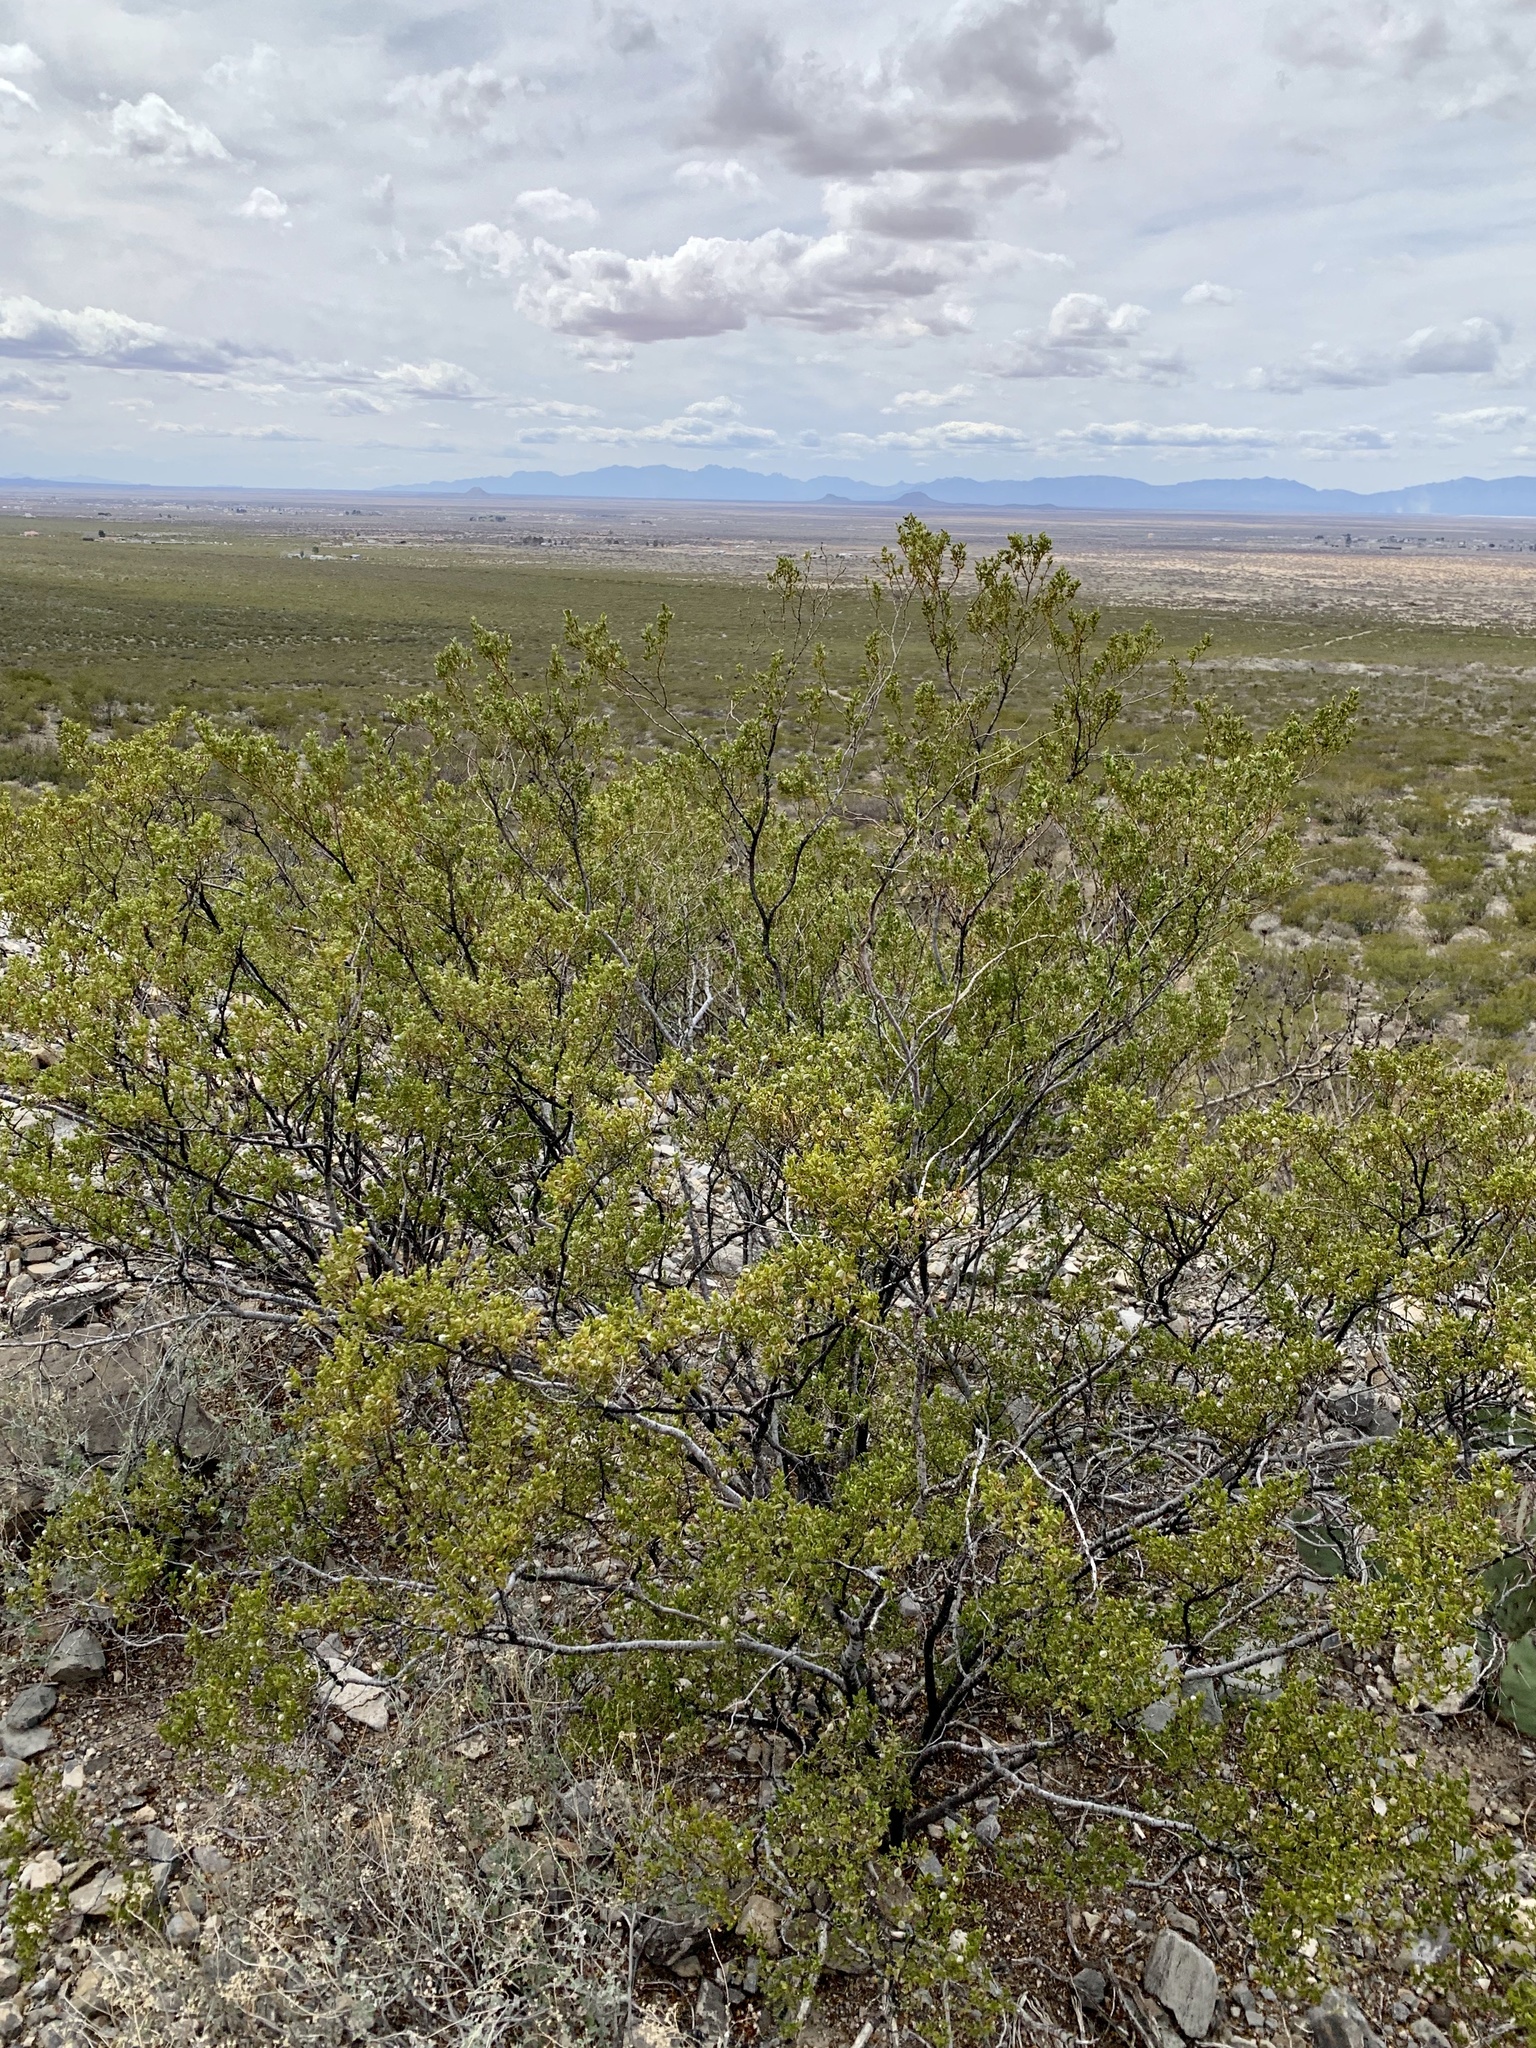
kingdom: Plantae
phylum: Tracheophyta
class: Magnoliopsida
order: Zygophyllales
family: Zygophyllaceae
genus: Larrea
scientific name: Larrea tridentata
